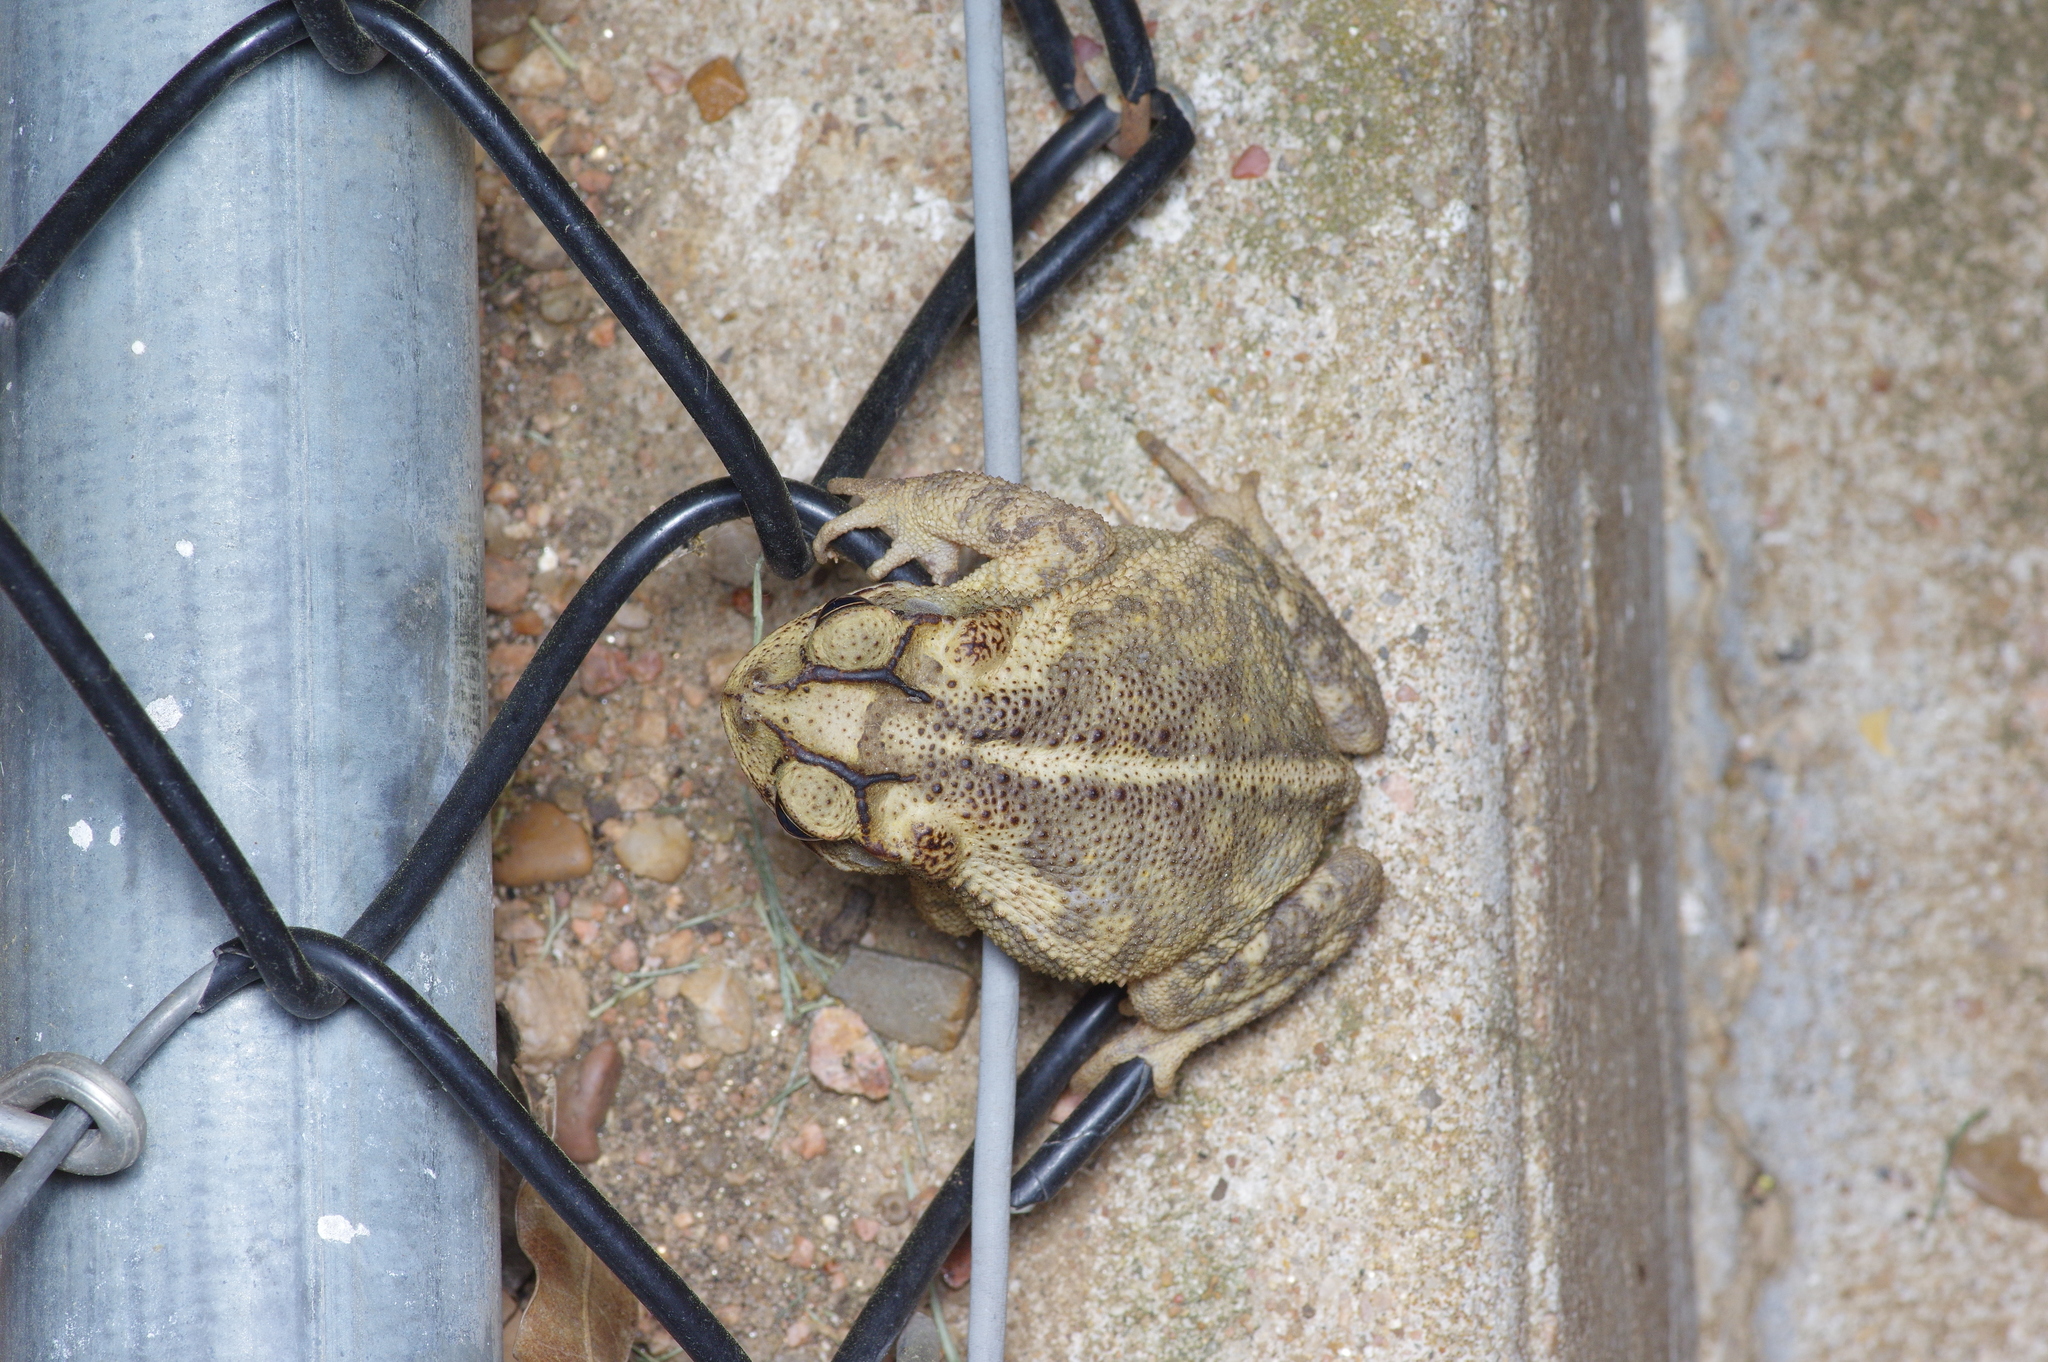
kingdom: Animalia
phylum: Chordata
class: Amphibia
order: Anura
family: Bufonidae
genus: Incilius
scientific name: Incilius nebulifer
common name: Gulf coast toad
